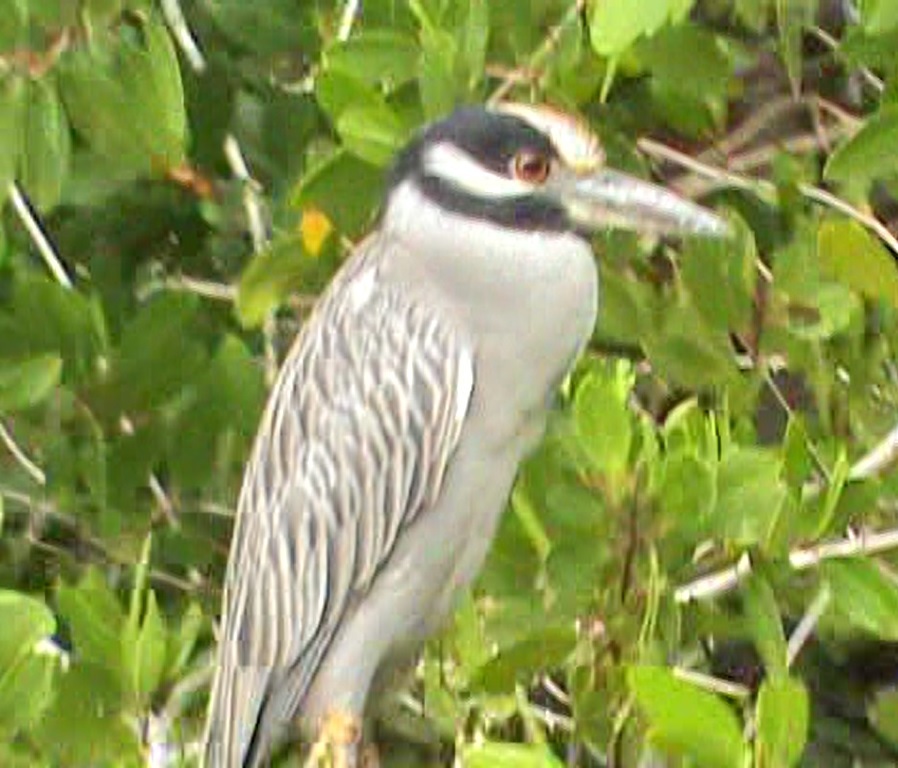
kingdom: Animalia
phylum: Chordata
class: Aves
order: Pelecaniformes
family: Ardeidae
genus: Nyctanassa
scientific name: Nyctanassa violacea
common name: Yellow-crowned night heron
